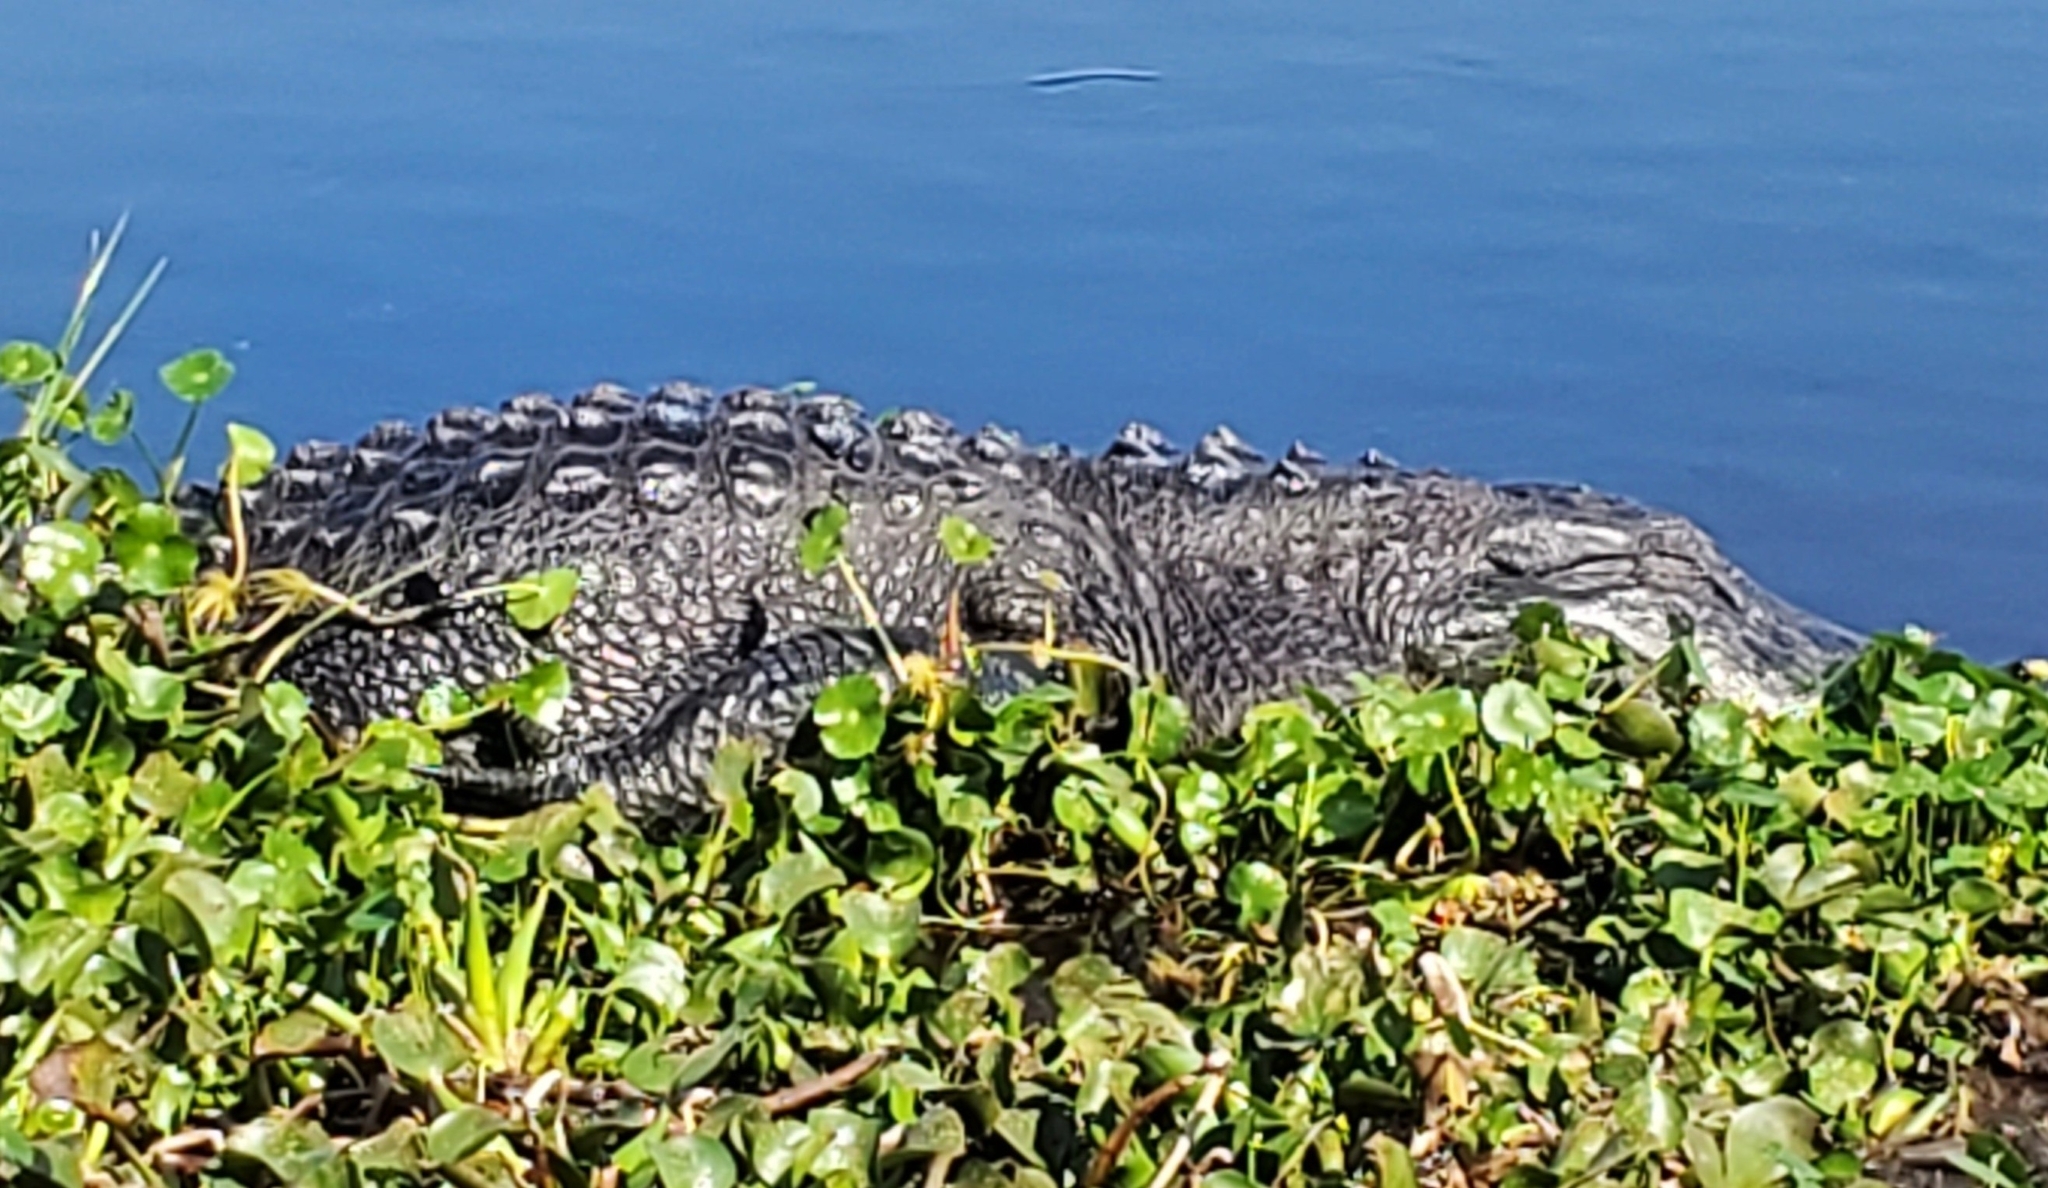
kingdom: Animalia
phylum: Chordata
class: Crocodylia
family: Alligatoridae
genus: Alligator
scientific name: Alligator mississippiensis
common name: American alligator
